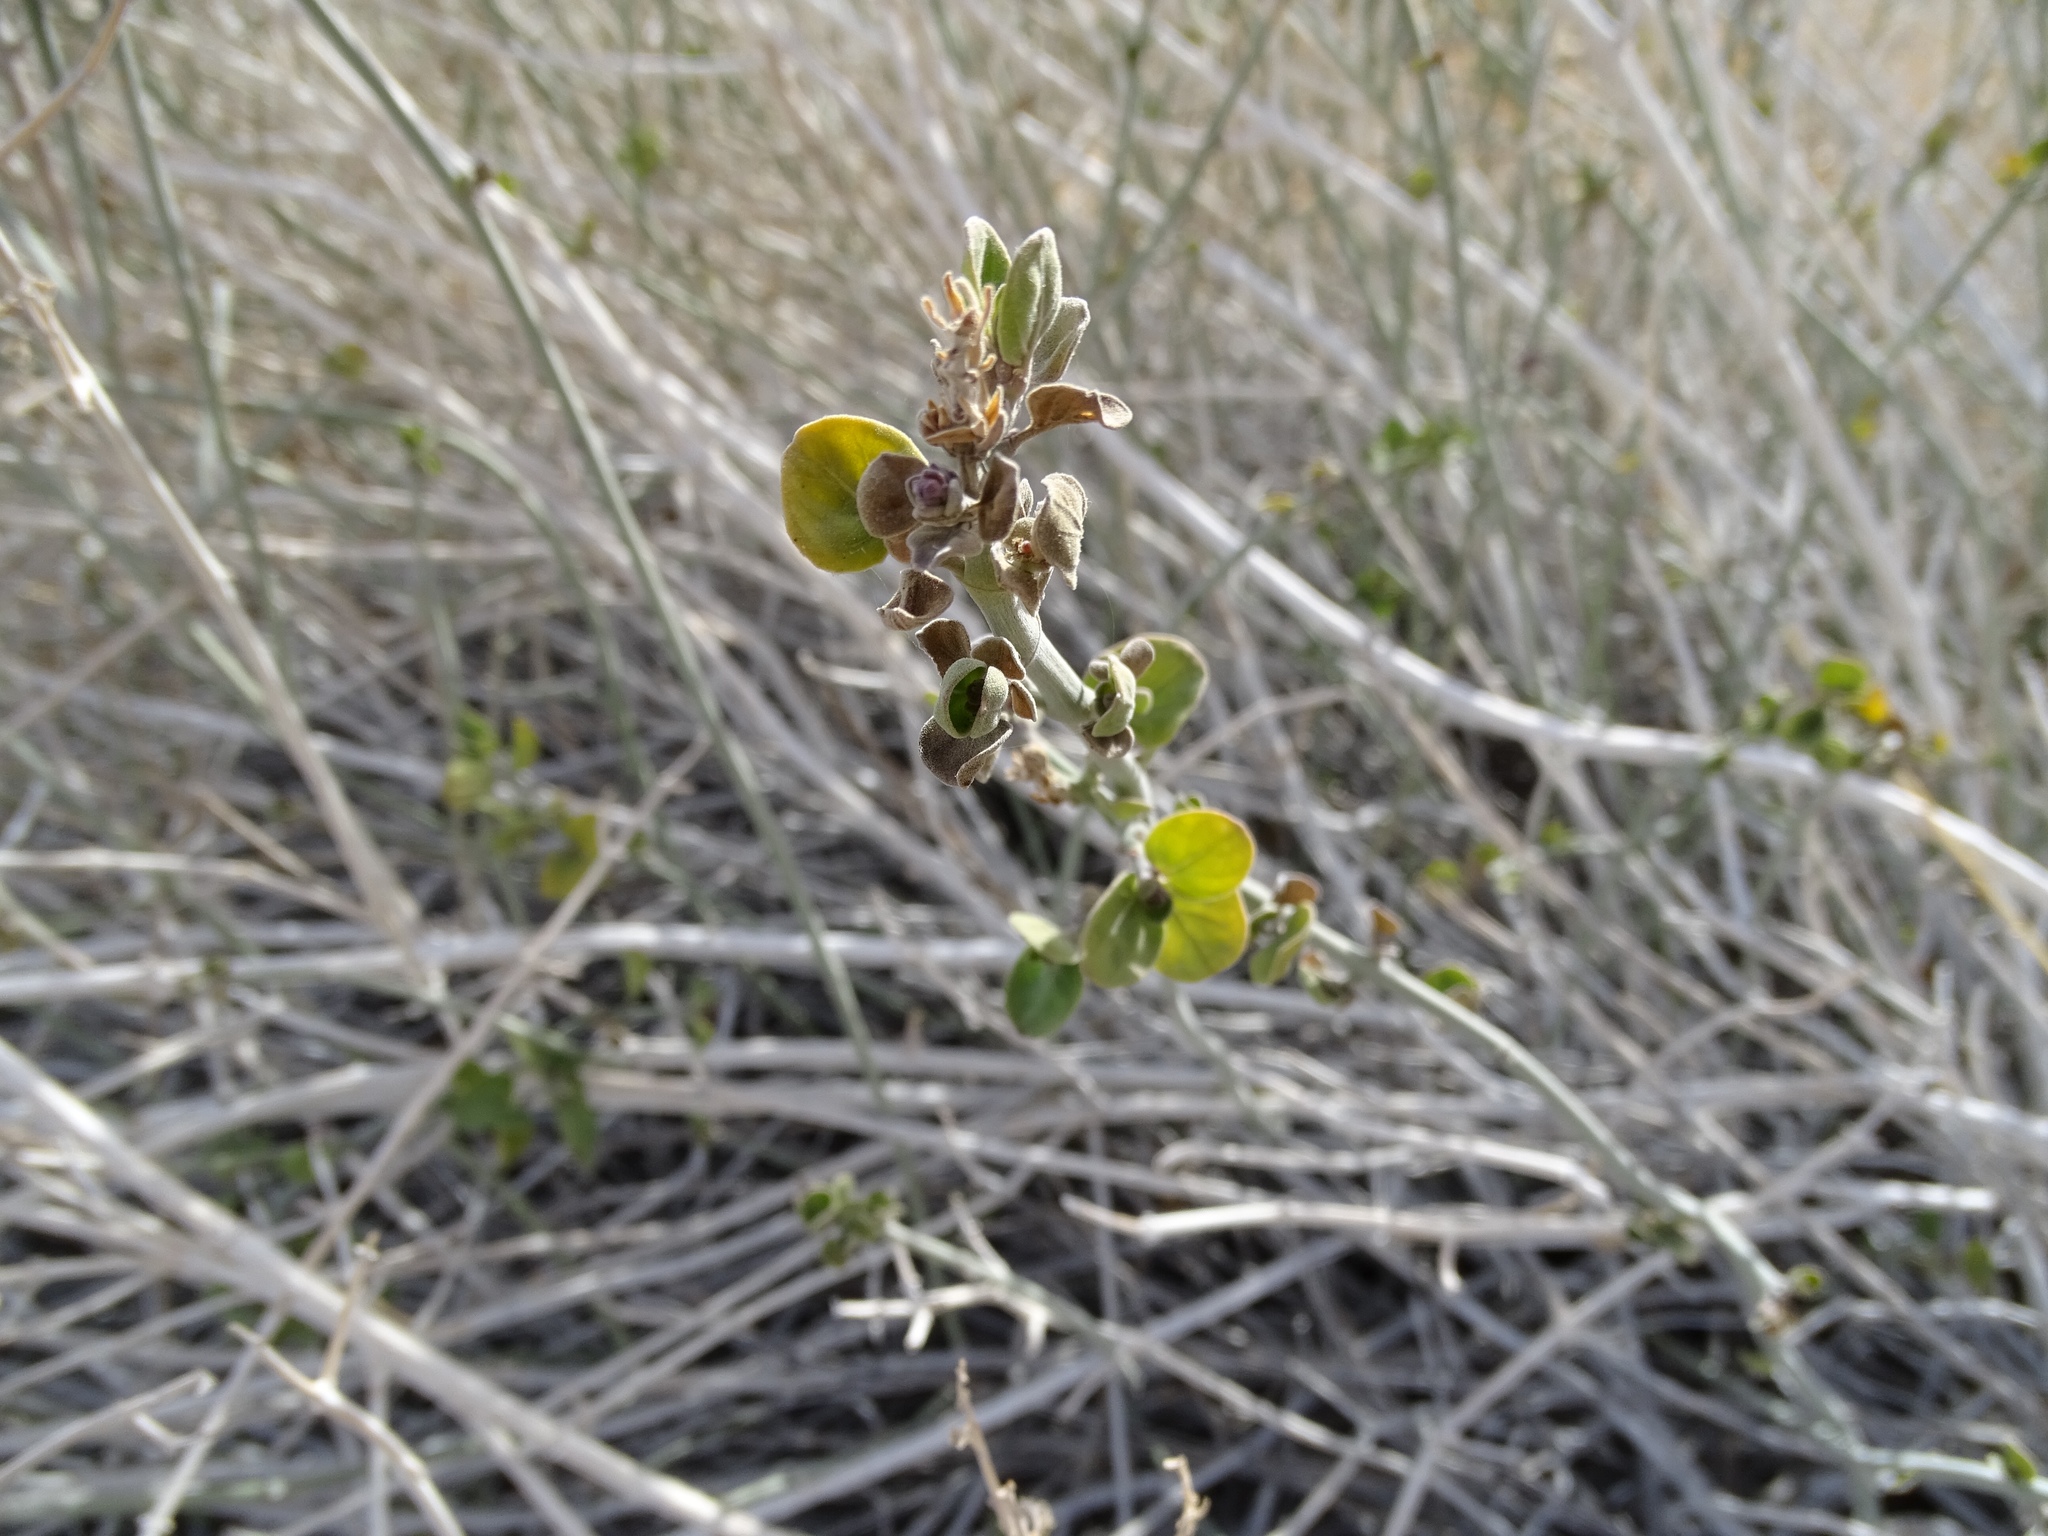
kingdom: Plantae
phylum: Tracheophyta
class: Magnoliopsida
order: Lamiales
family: Acanthaceae
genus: Justicia
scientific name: Justicia californica
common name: Chuparosa-honeysuckle
